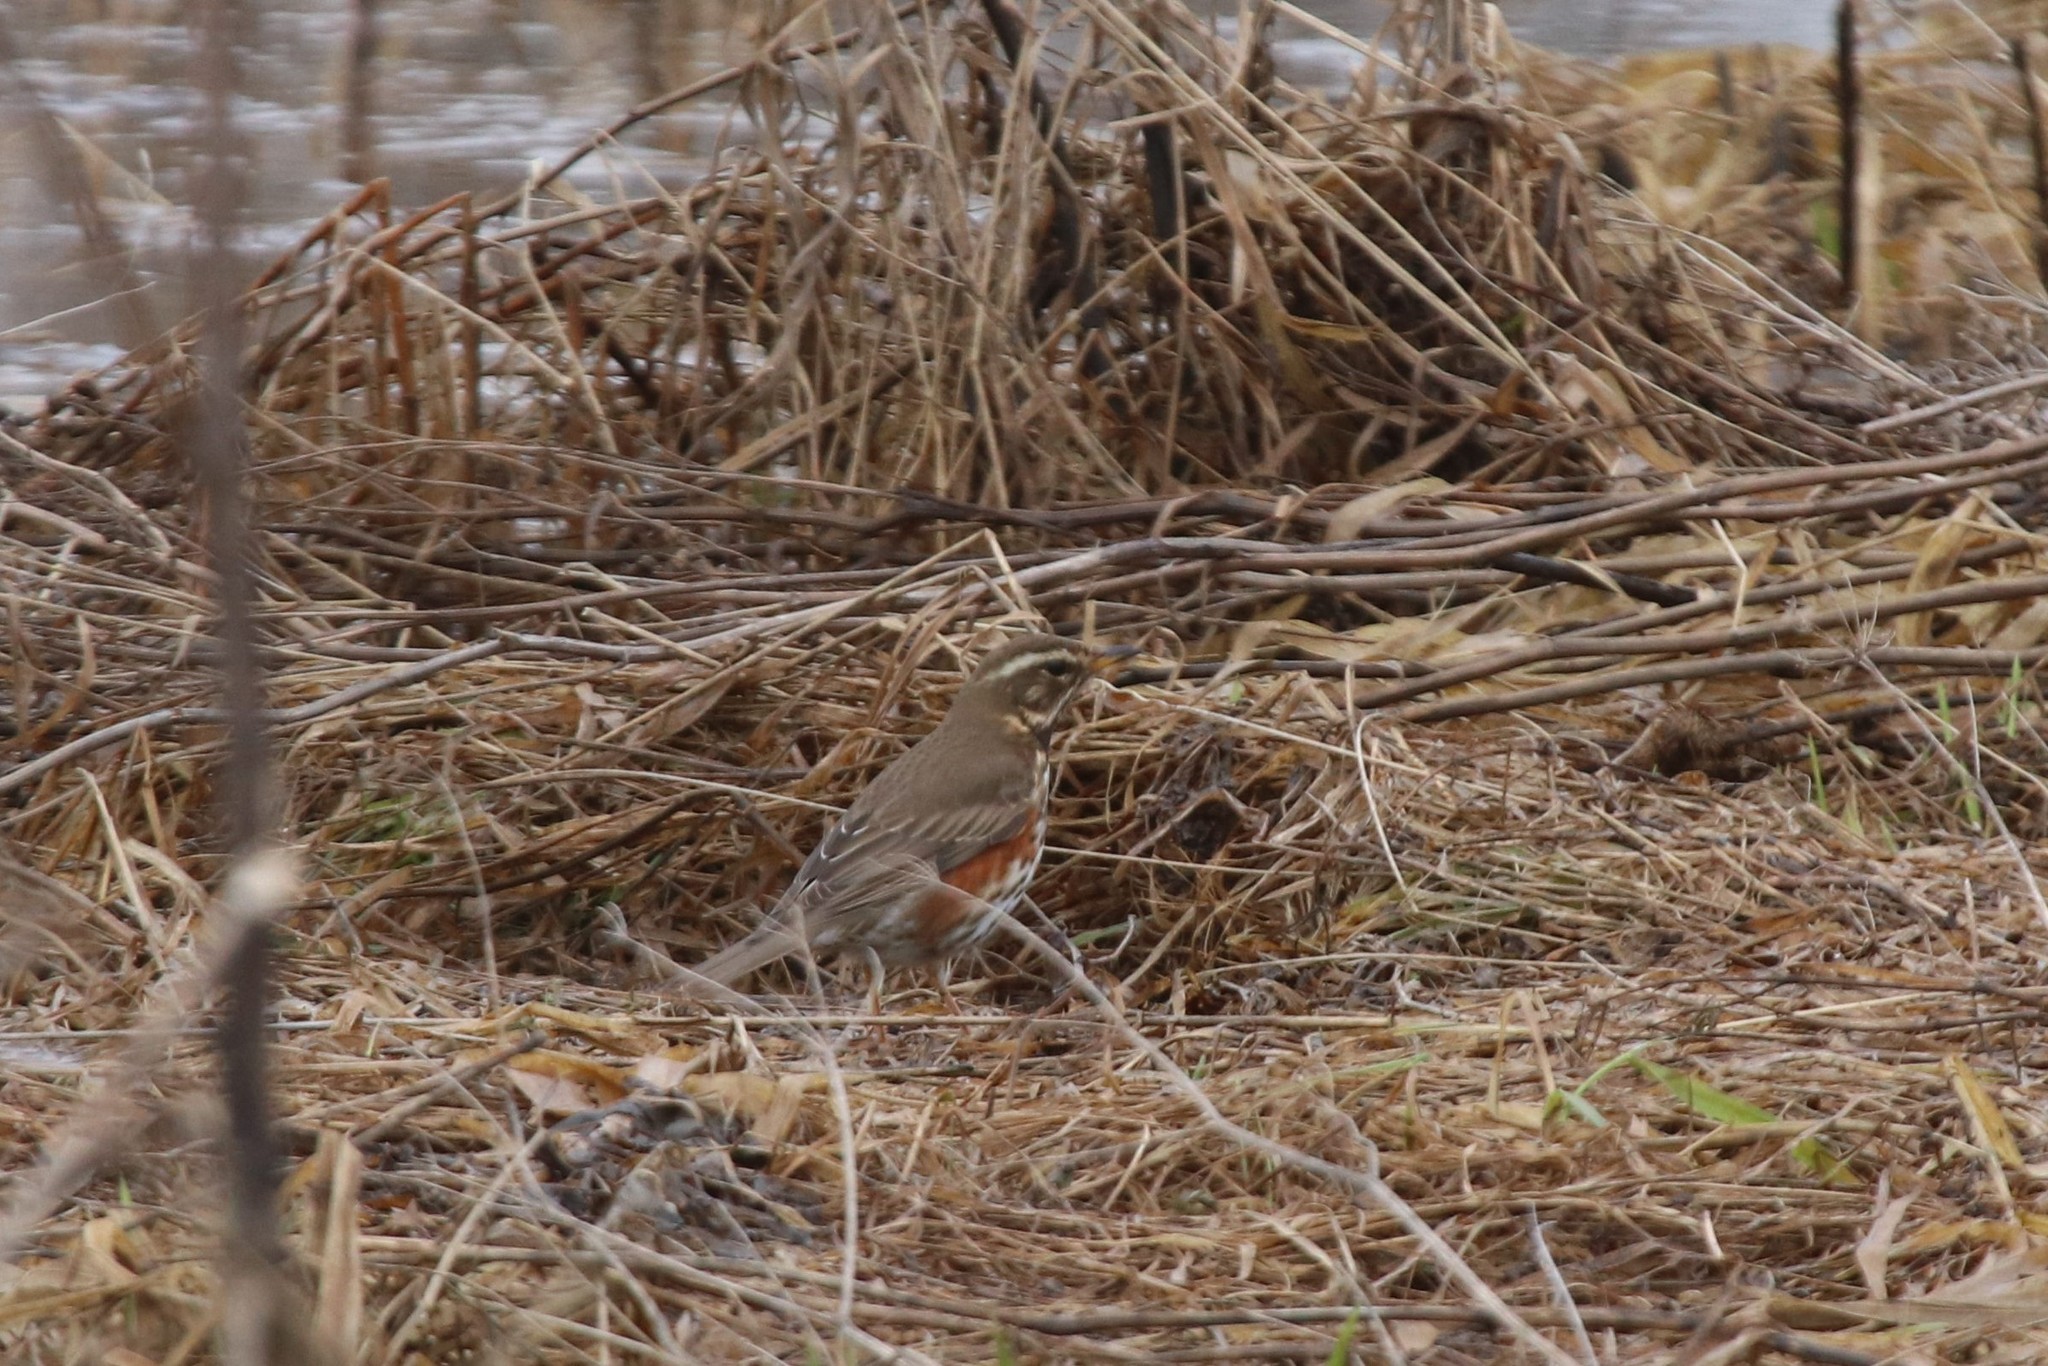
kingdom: Animalia
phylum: Chordata
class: Aves
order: Passeriformes
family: Turdidae
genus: Turdus
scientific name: Turdus iliacus
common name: Redwing
